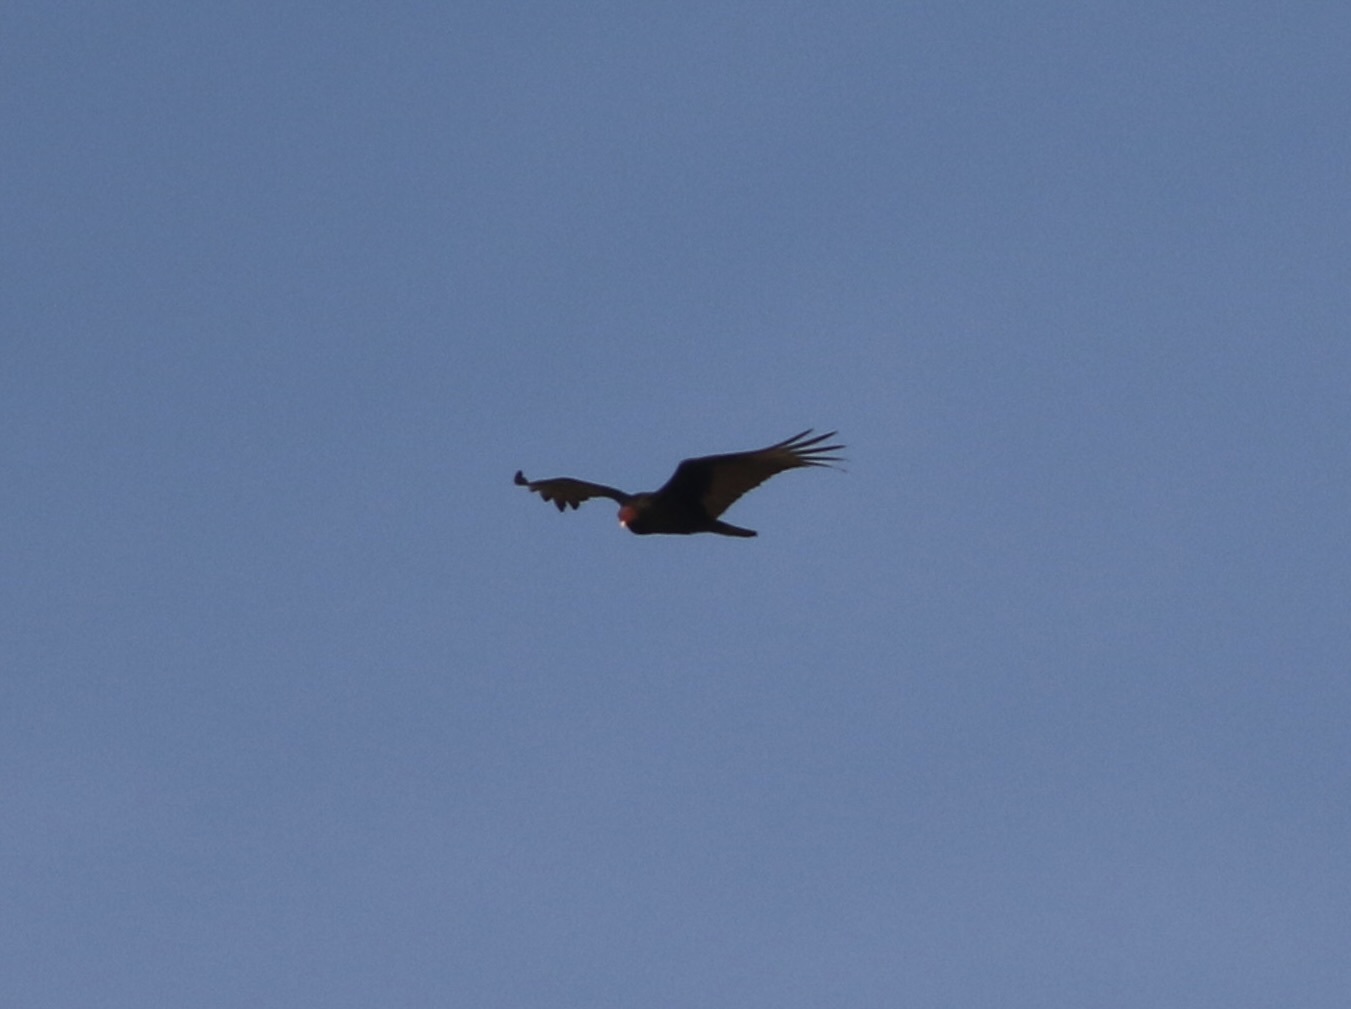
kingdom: Animalia
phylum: Chordata
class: Aves
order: Accipitriformes
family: Cathartidae
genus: Cathartes
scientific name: Cathartes aura
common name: Turkey vulture
